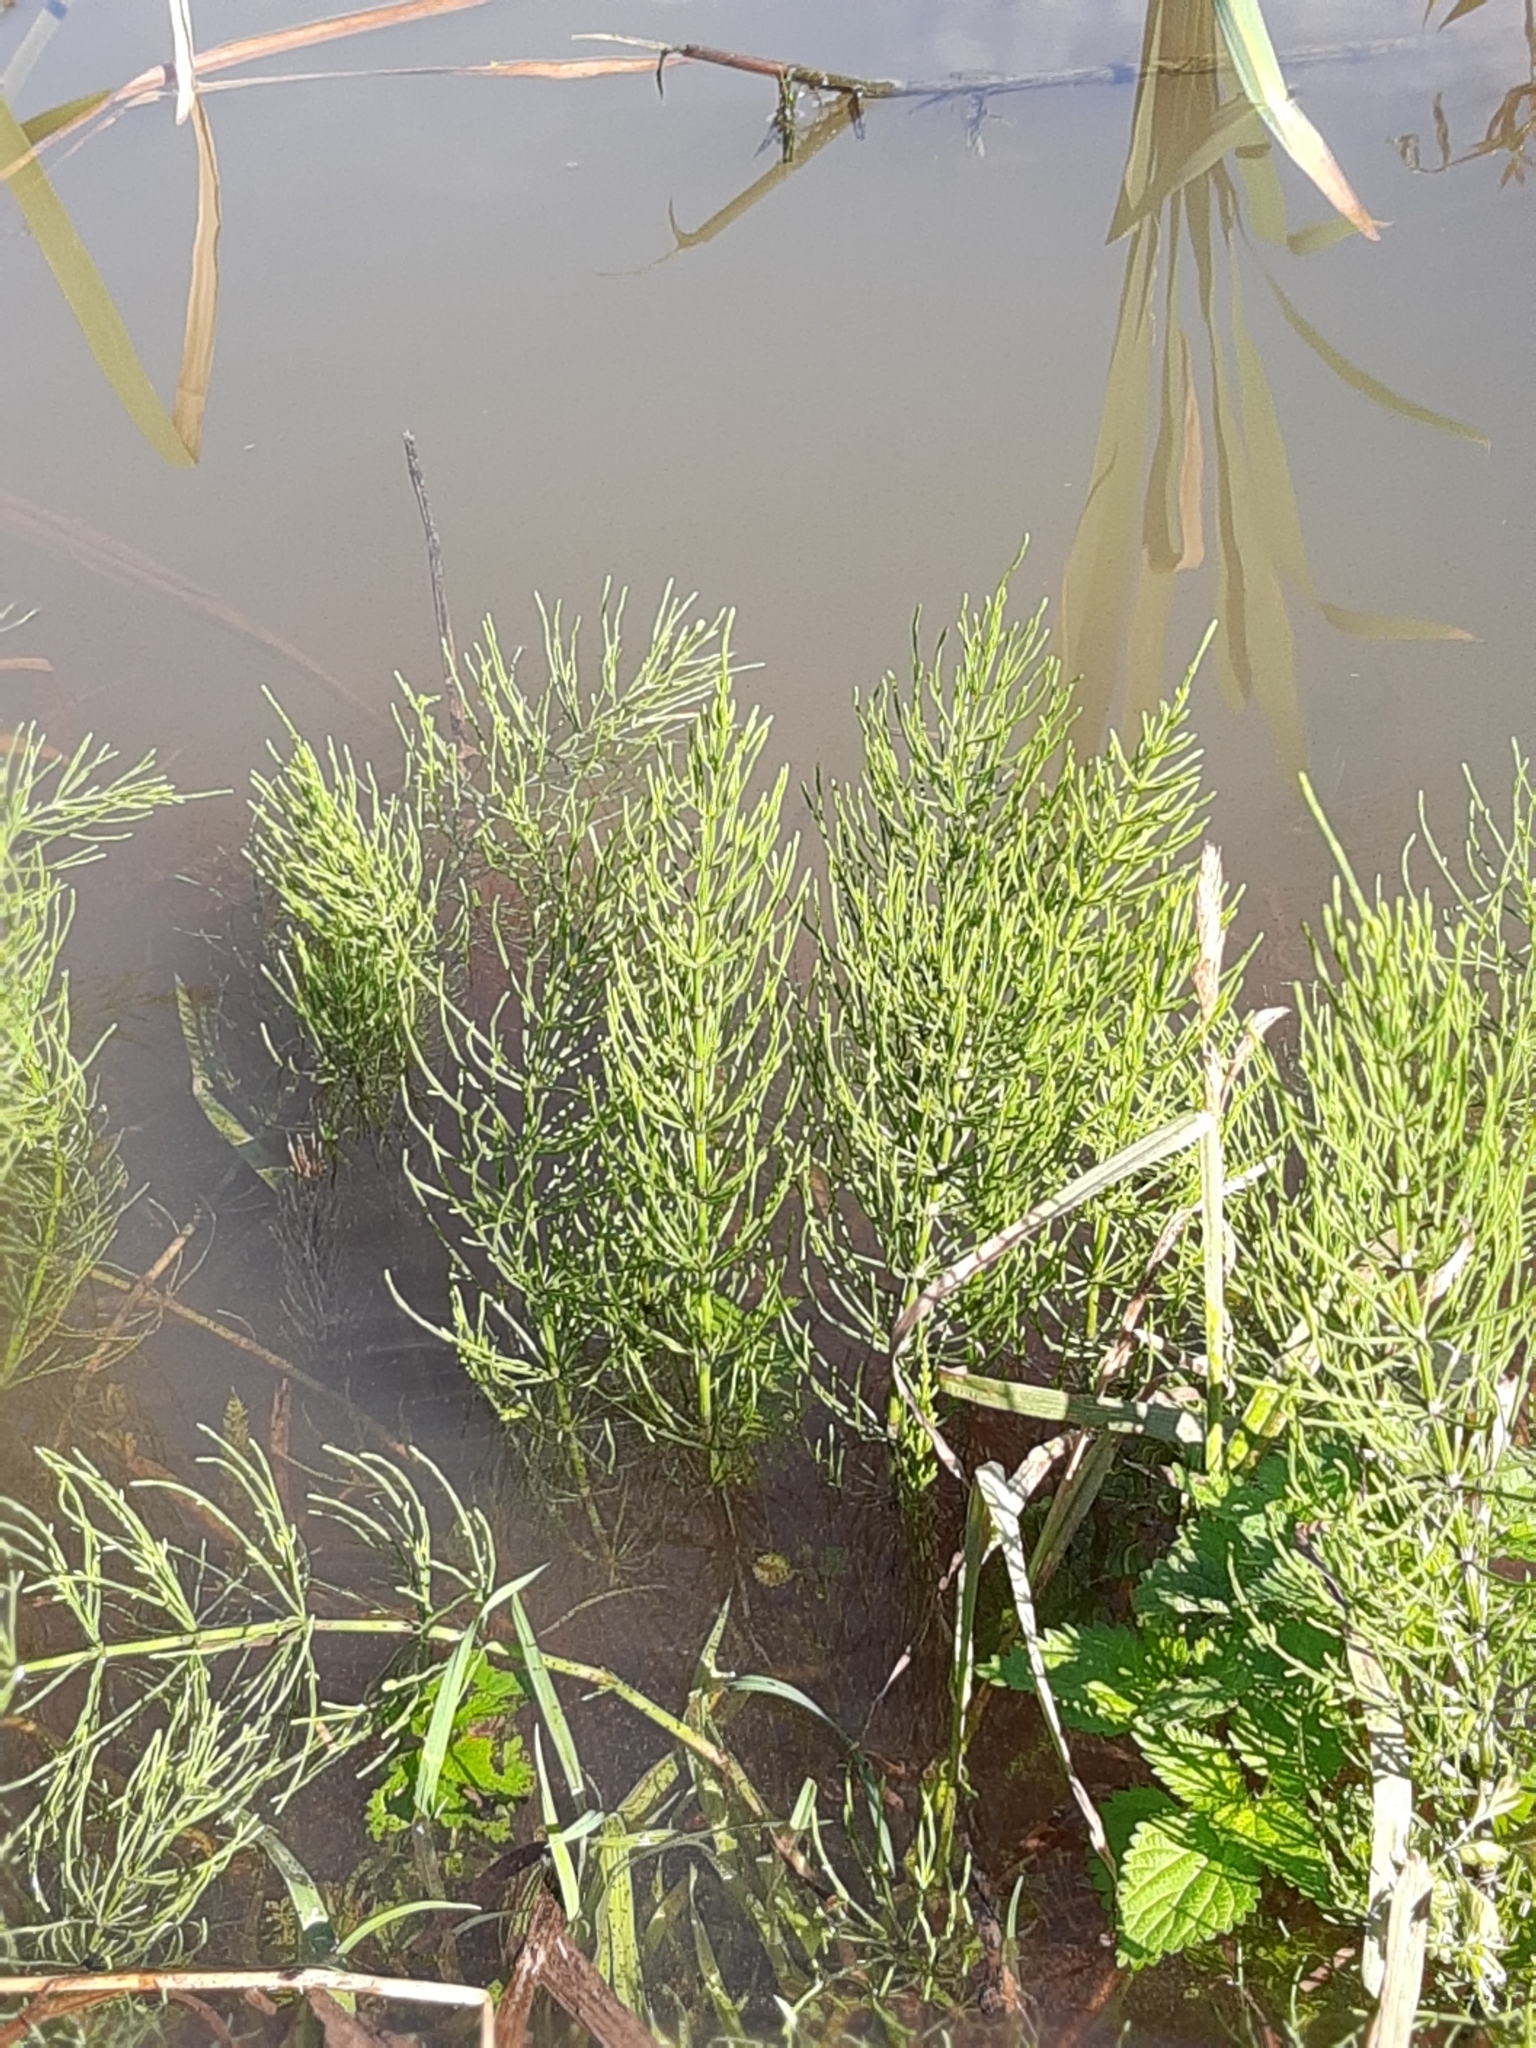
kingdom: Plantae
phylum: Tracheophyta
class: Polypodiopsida
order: Equisetales
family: Equisetaceae
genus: Equisetum
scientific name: Equisetum arvense
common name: Field horsetail
